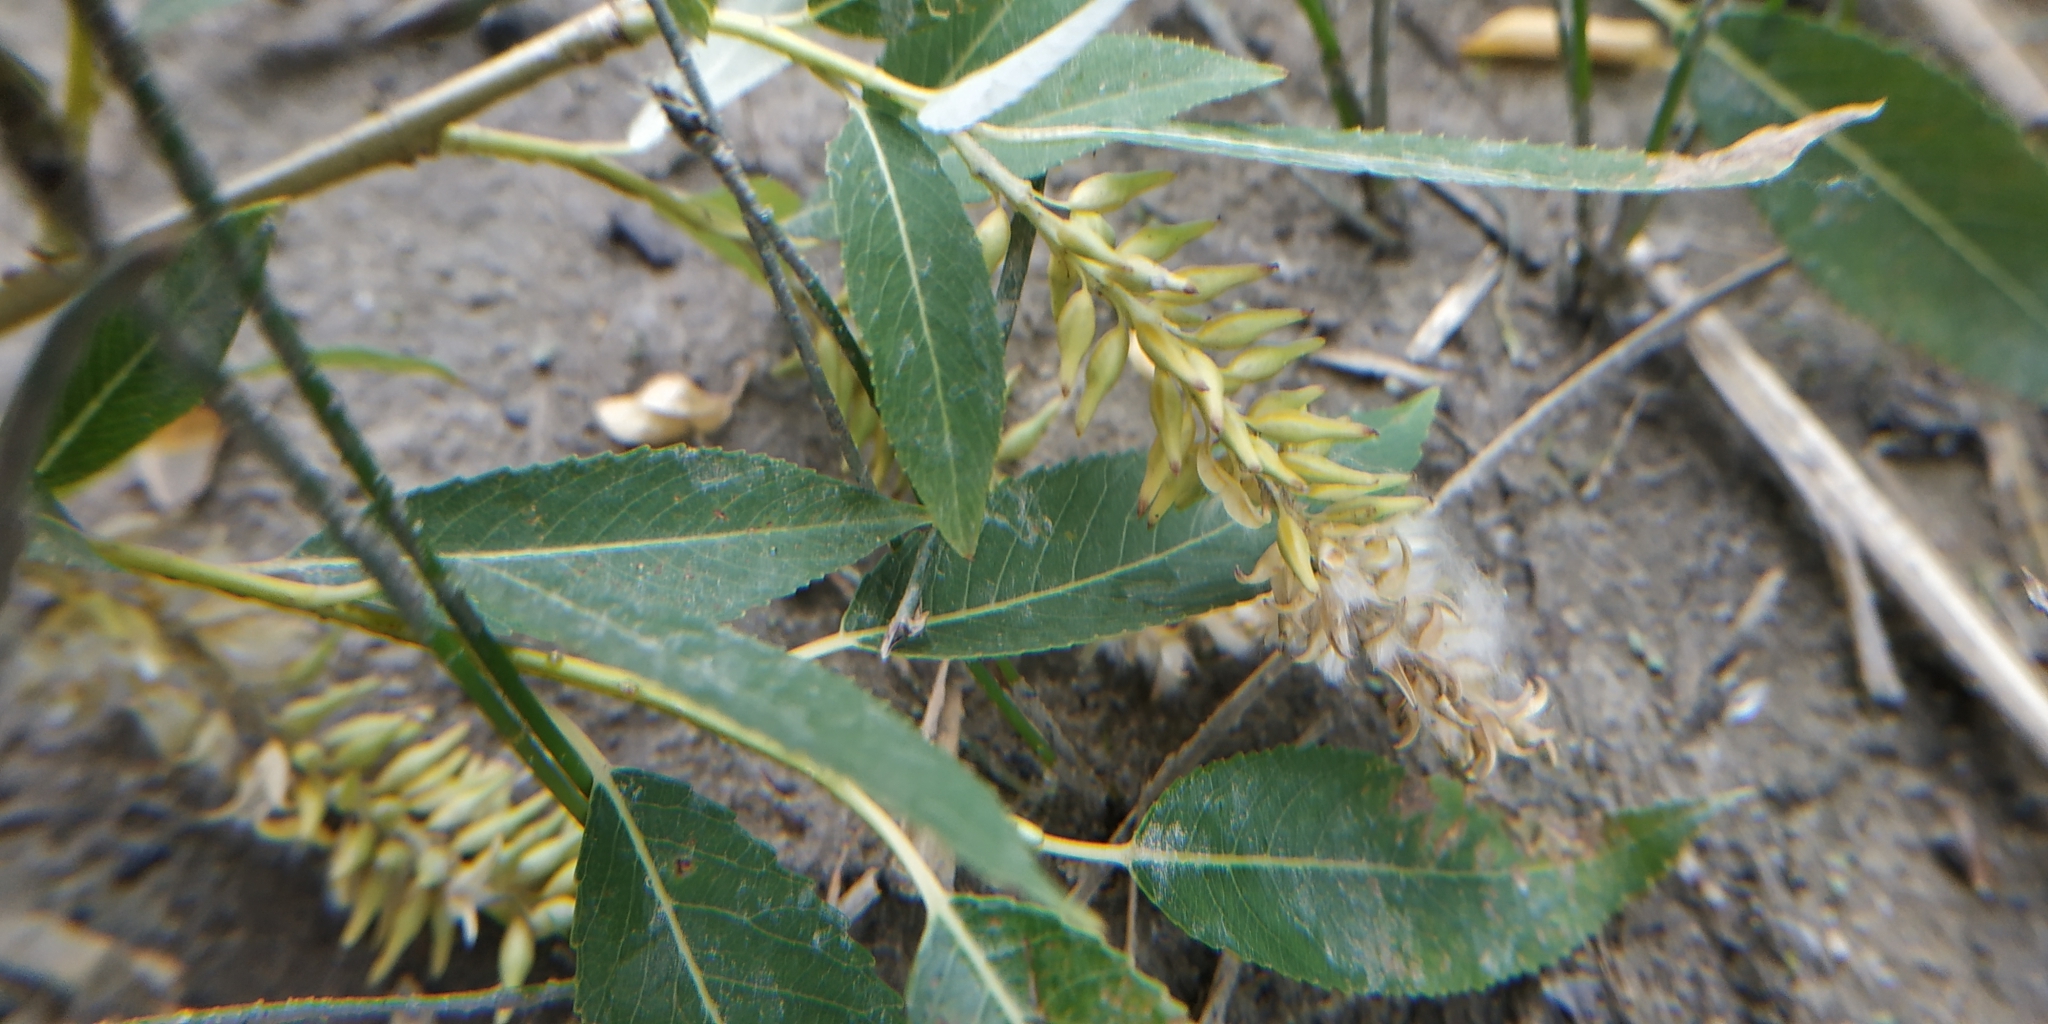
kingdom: Plantae
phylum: Tracheophyta
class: Magnoliopsida
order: Malpighiales
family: Salicaceae
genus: Salix
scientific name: Salix fragilis
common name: Crack willow
